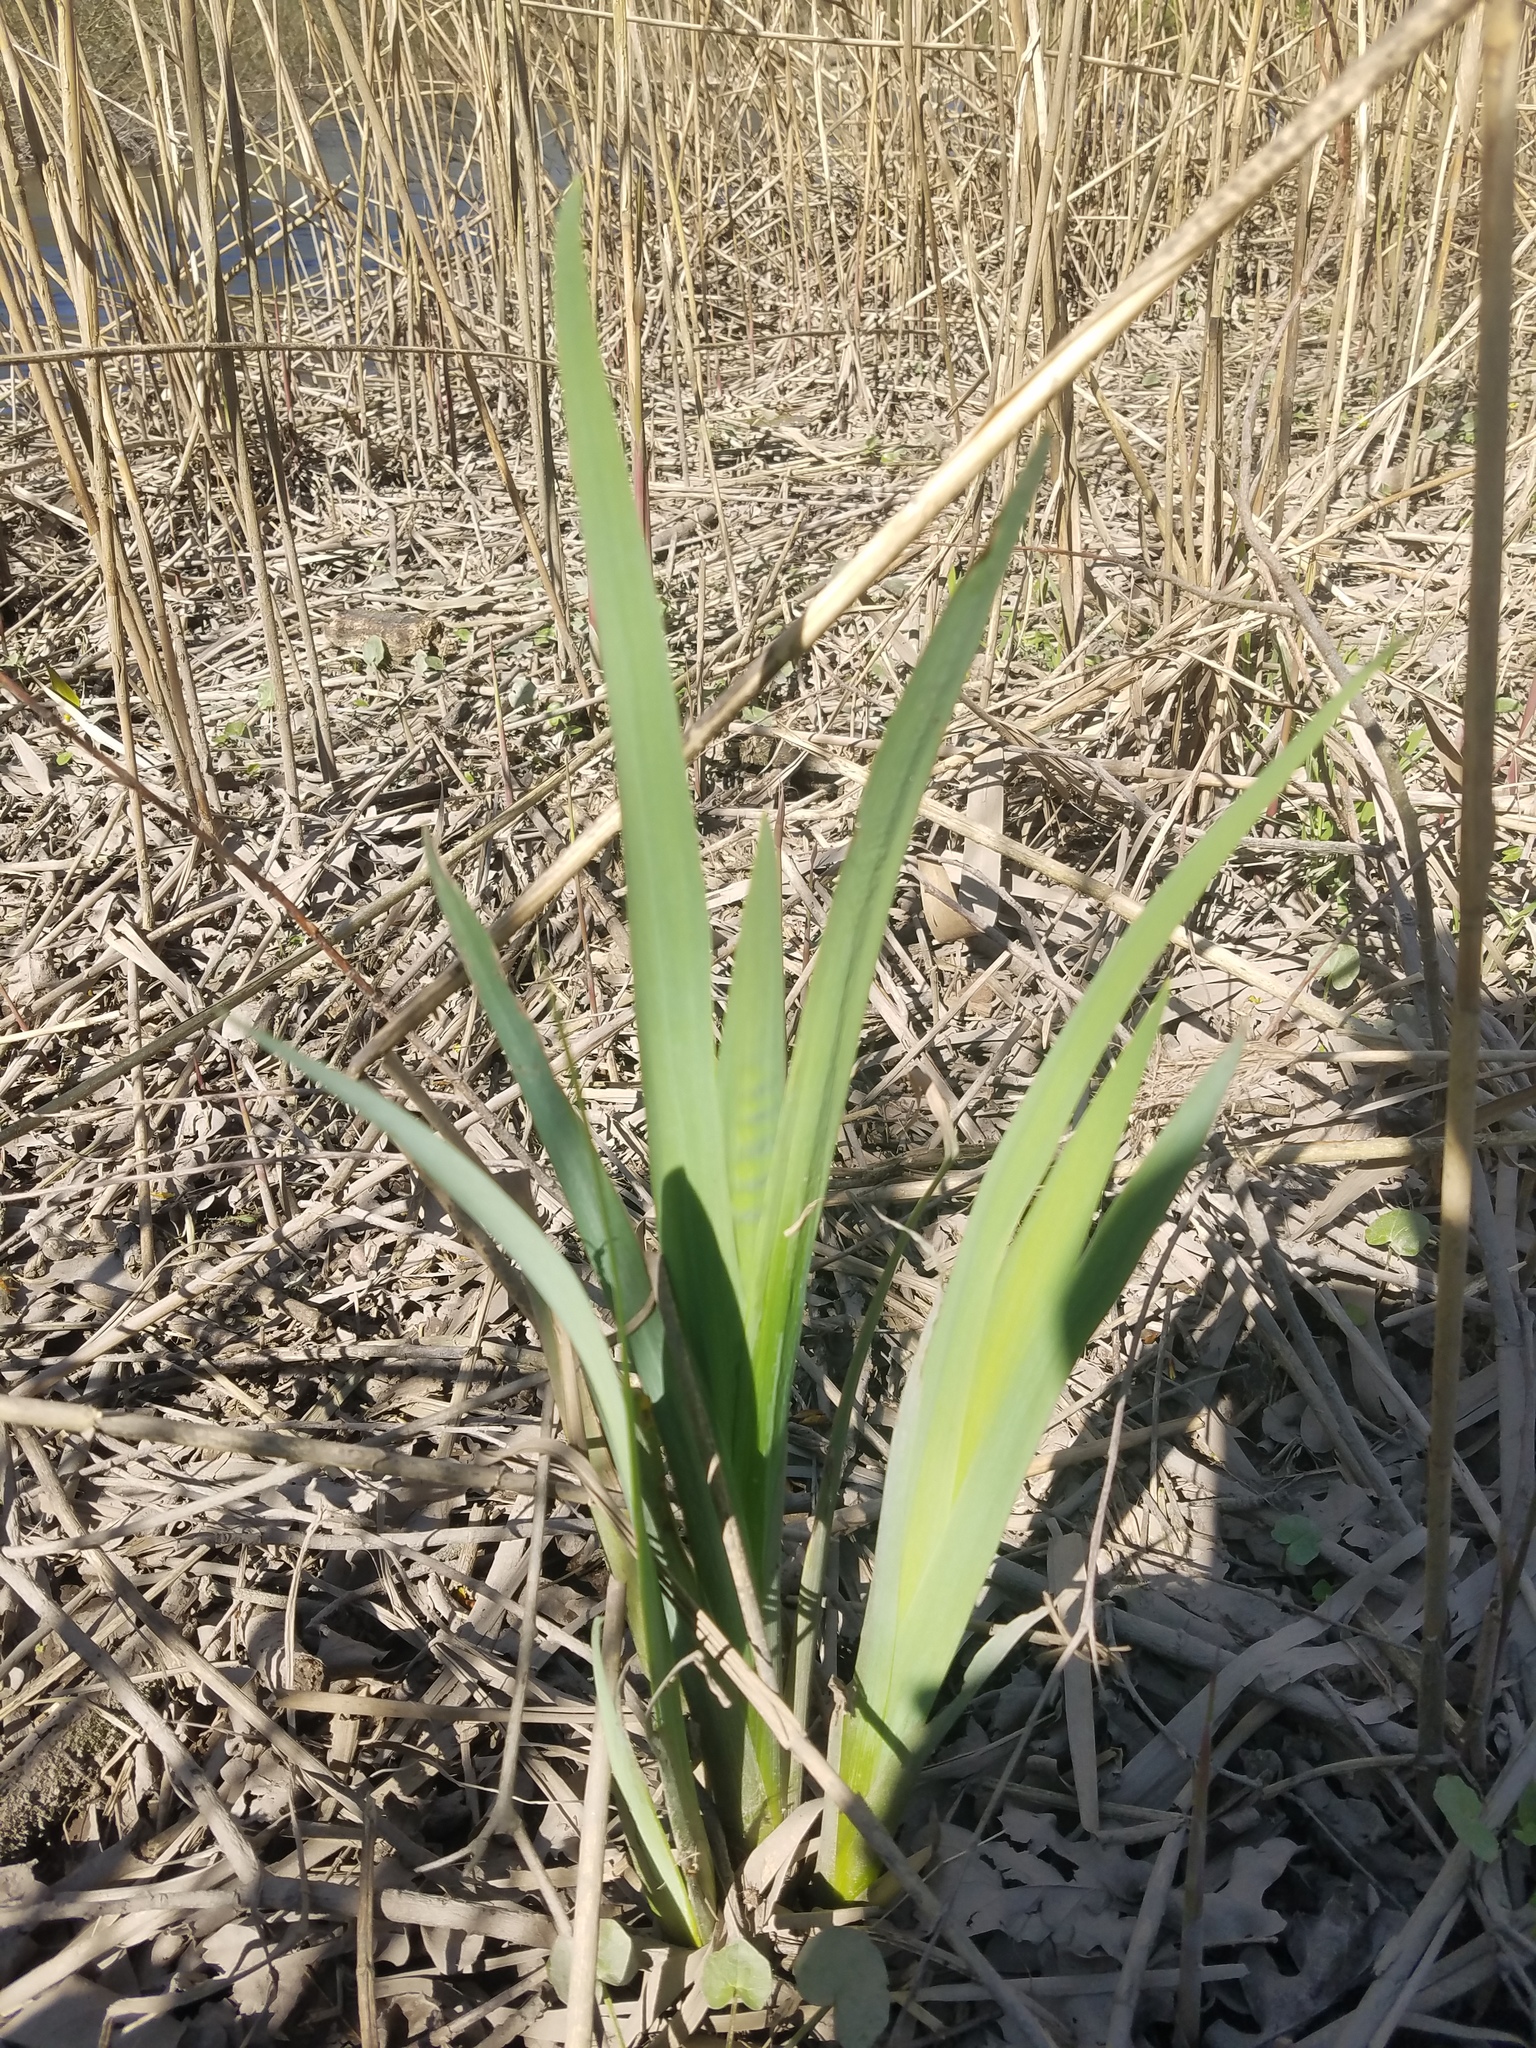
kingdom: Plantae
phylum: Tracheophyta
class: Liliopsida
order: Asparagales
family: Iridaceae
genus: Iris
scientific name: Iris pseudacorus
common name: Yellow flag
